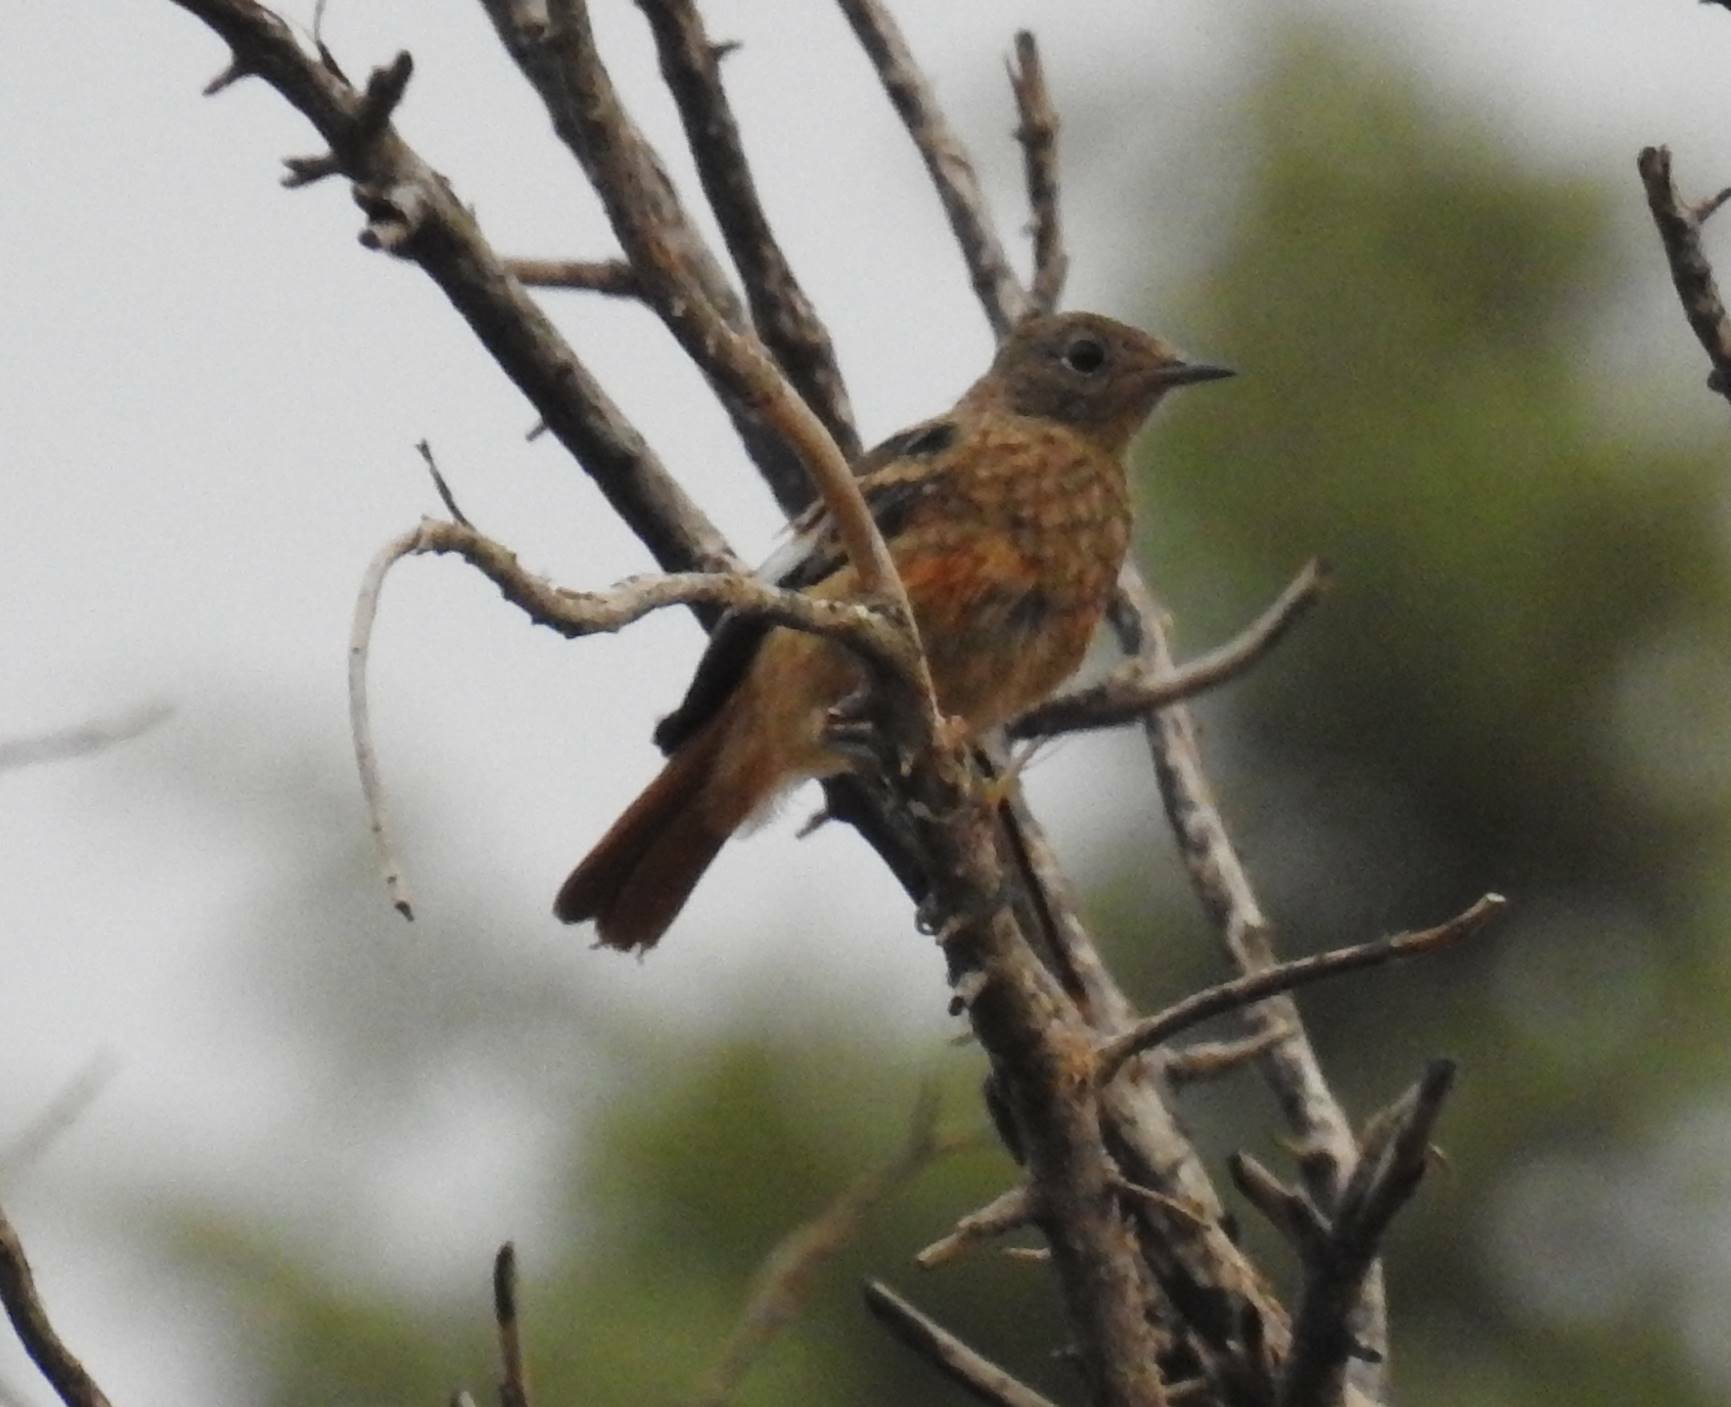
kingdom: Animalia
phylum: Chordata
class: Aves
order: Passeriformes
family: Muscicapidae
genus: Phoenicurus
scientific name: Phoenicurus moussieri
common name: Moussier's redstart
